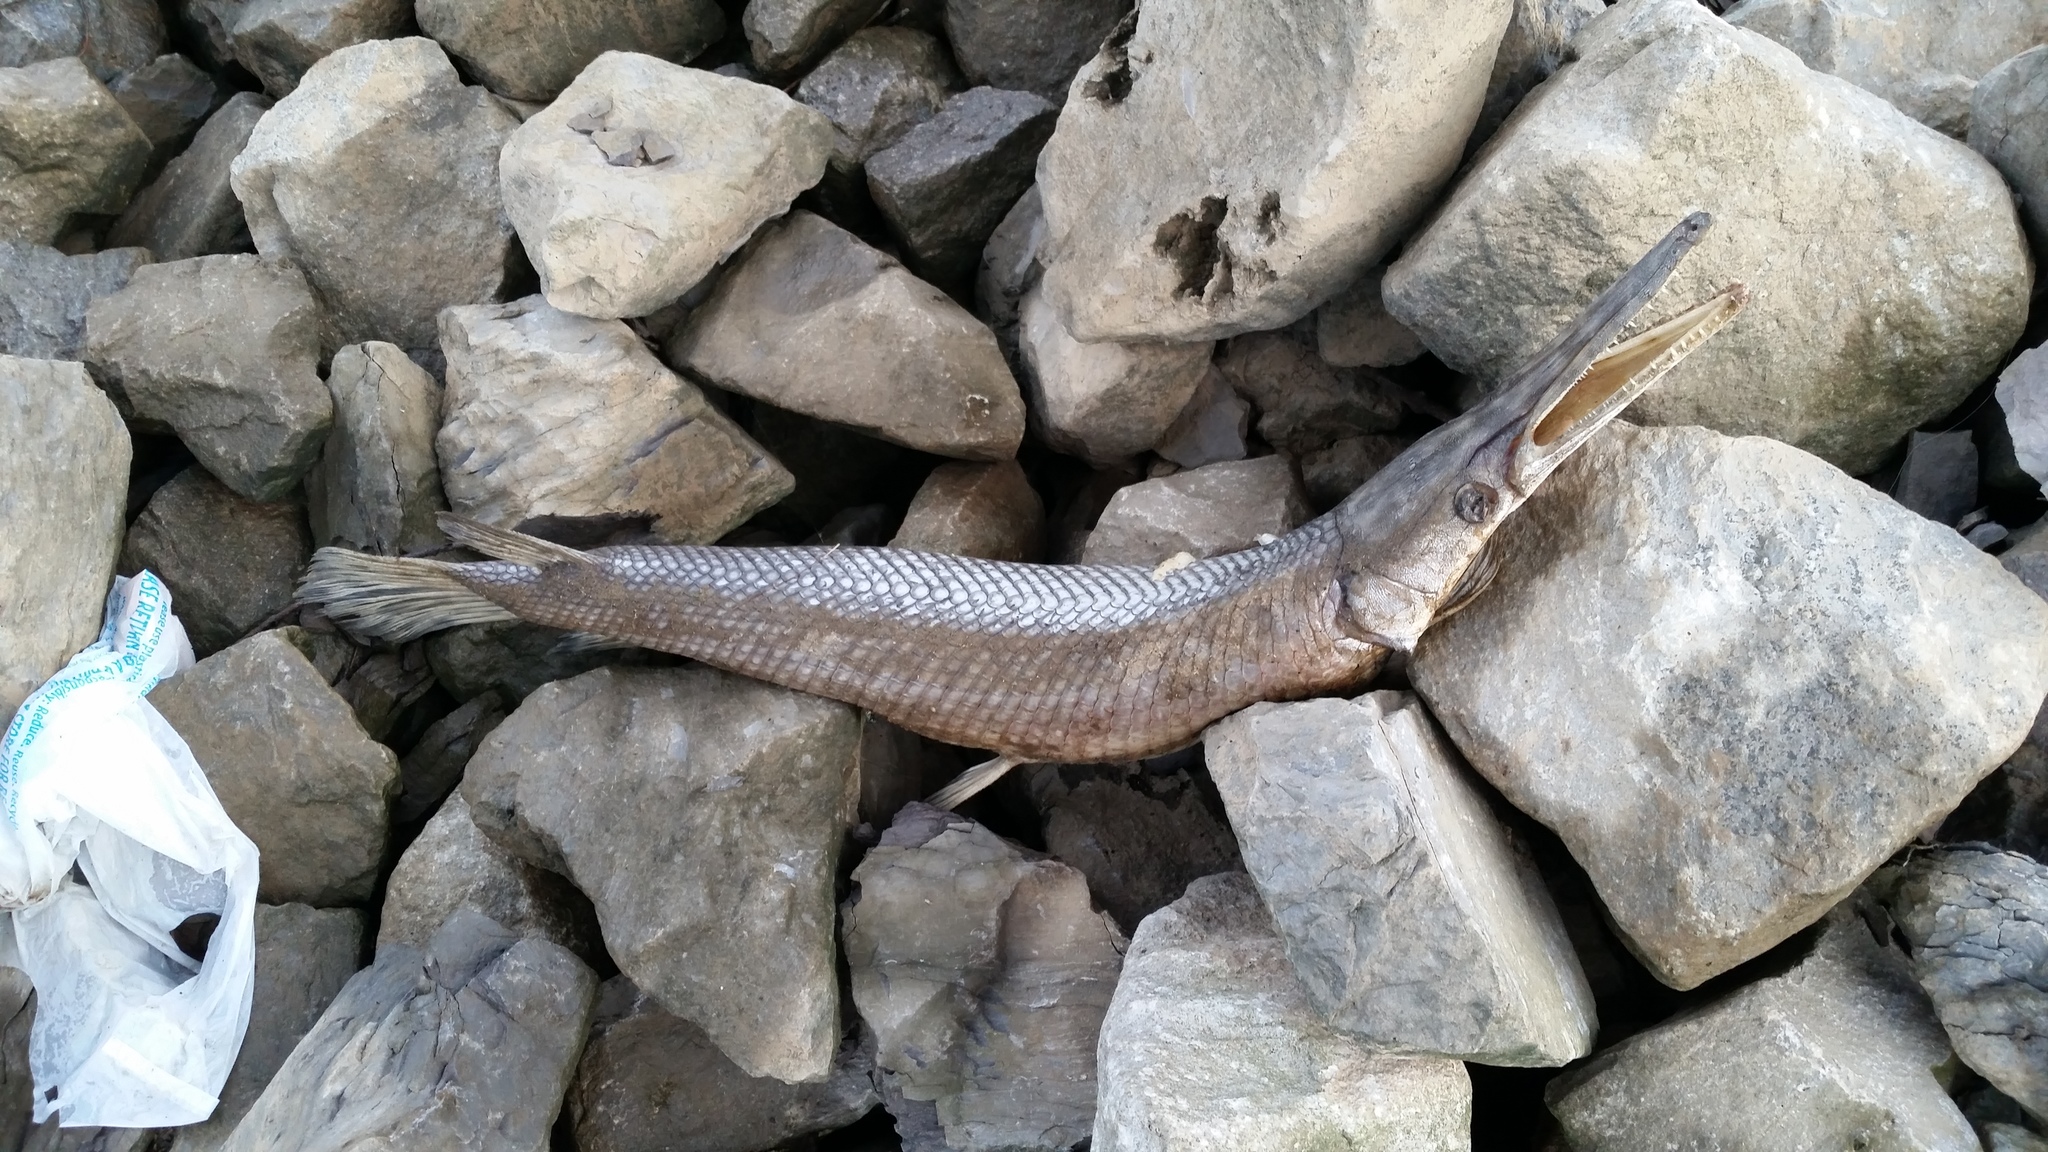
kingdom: Animalia
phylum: Chordata
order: Lepisosteiformes
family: Lepisosteidae
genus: Lepisosteus
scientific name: Lepisosteus oculatus
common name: Spotted gar
